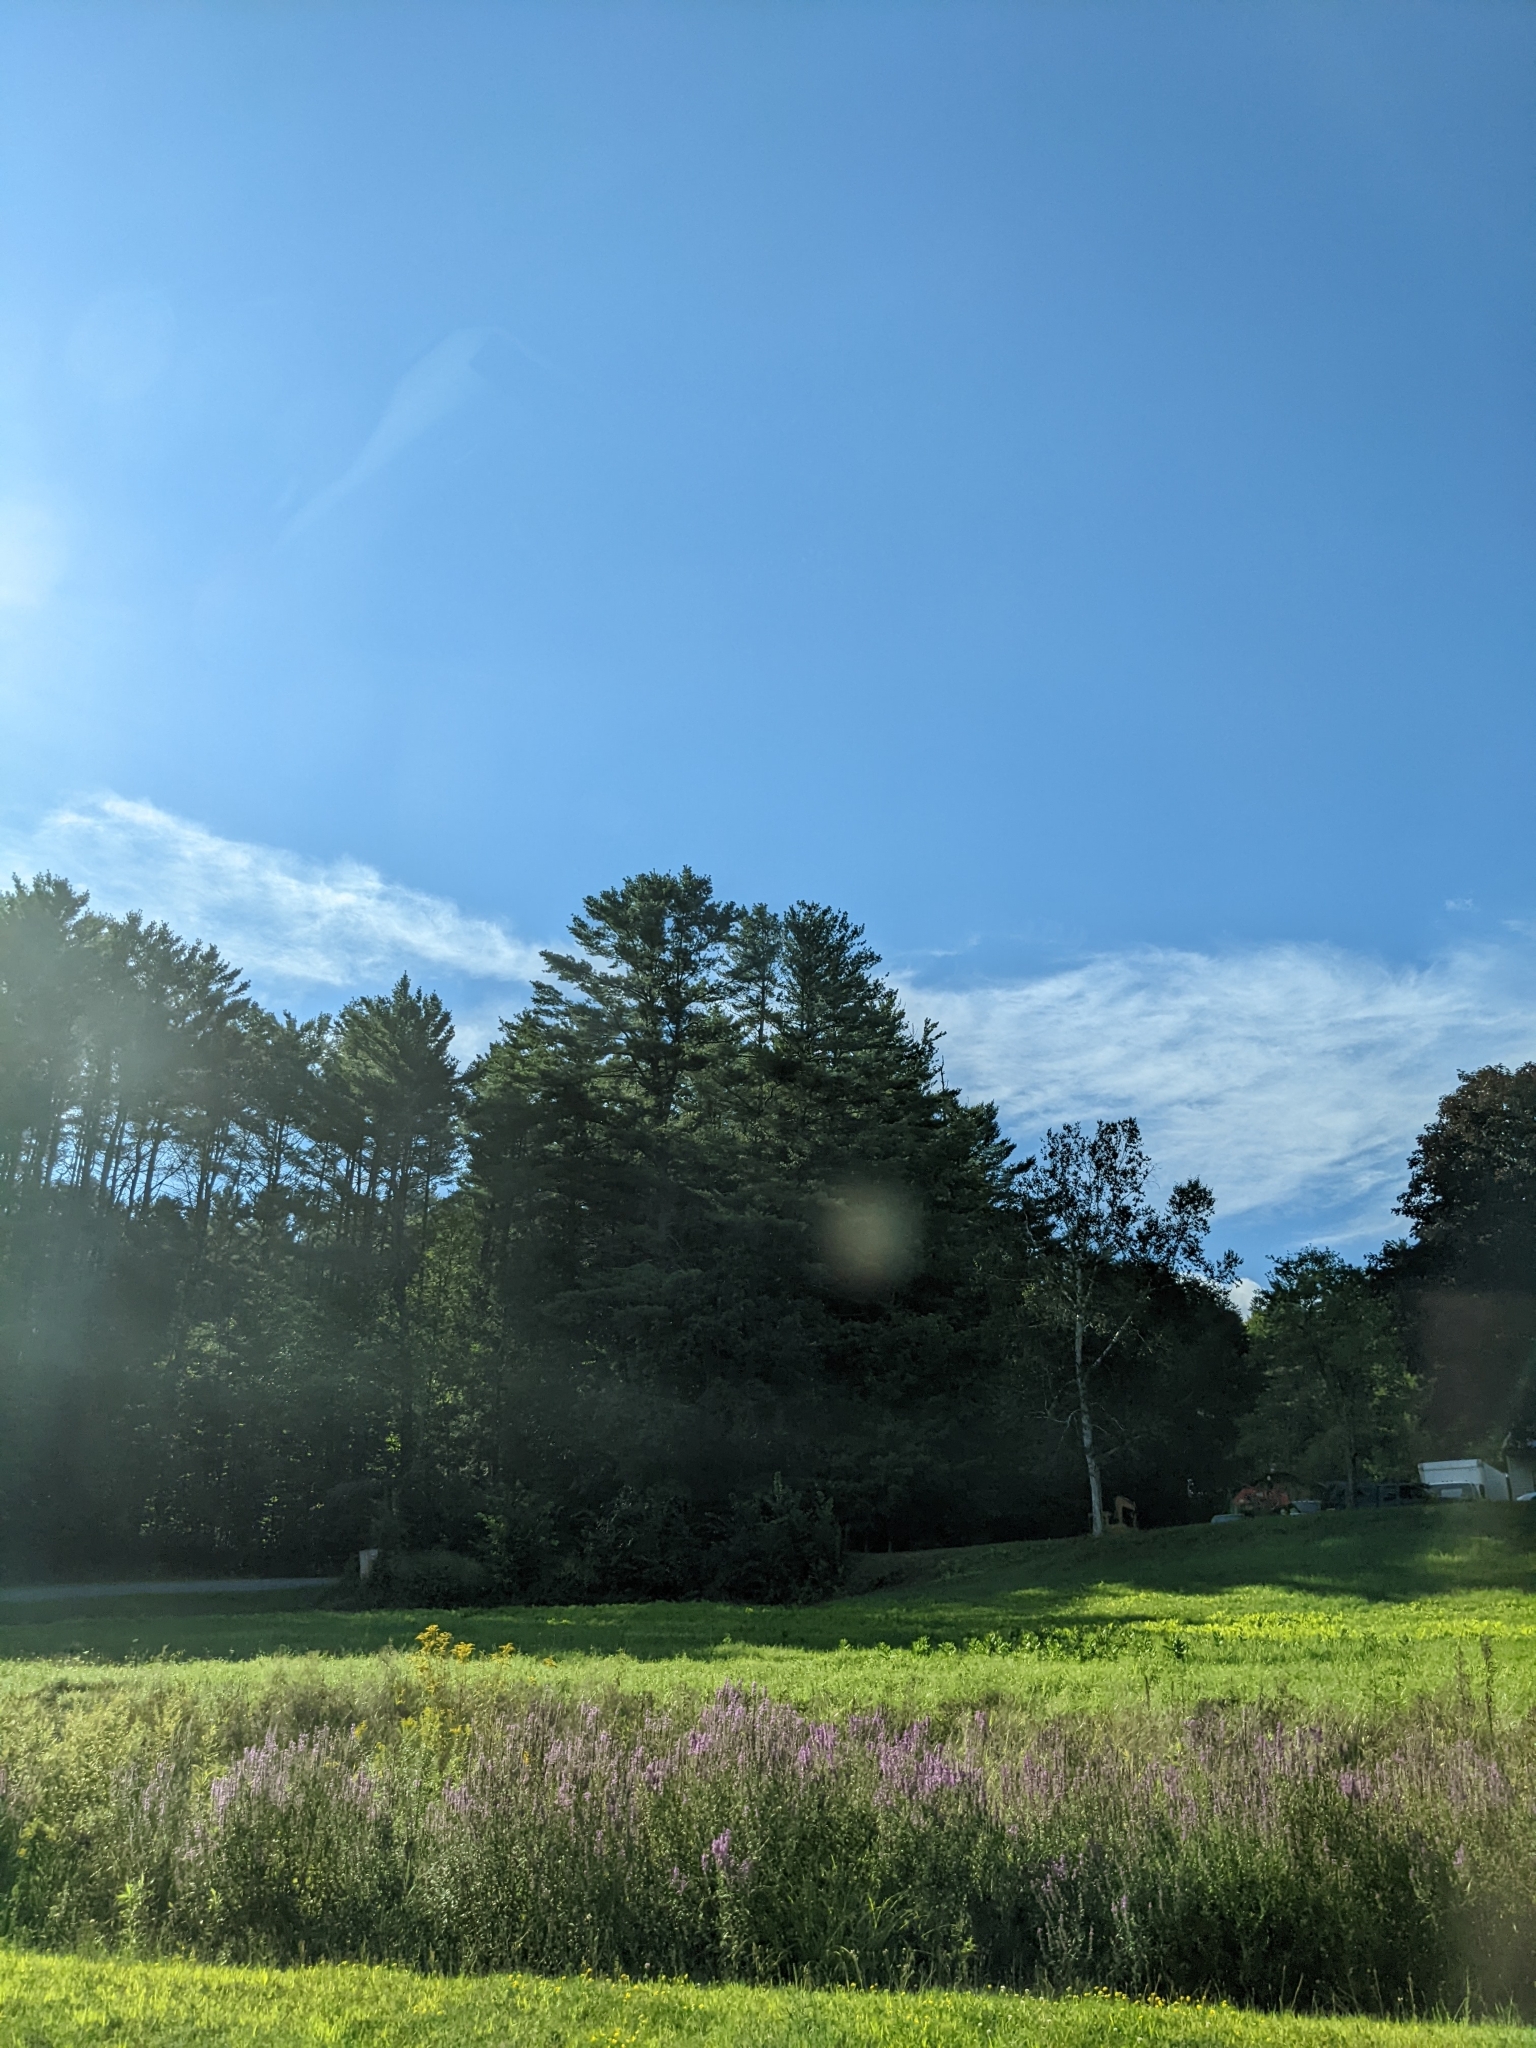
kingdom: Plantae
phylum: Tracheophyta
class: Pinopsida
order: Pinales
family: Pinaceae
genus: Pinus
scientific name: Pinus strobus
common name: Weymouth pine
